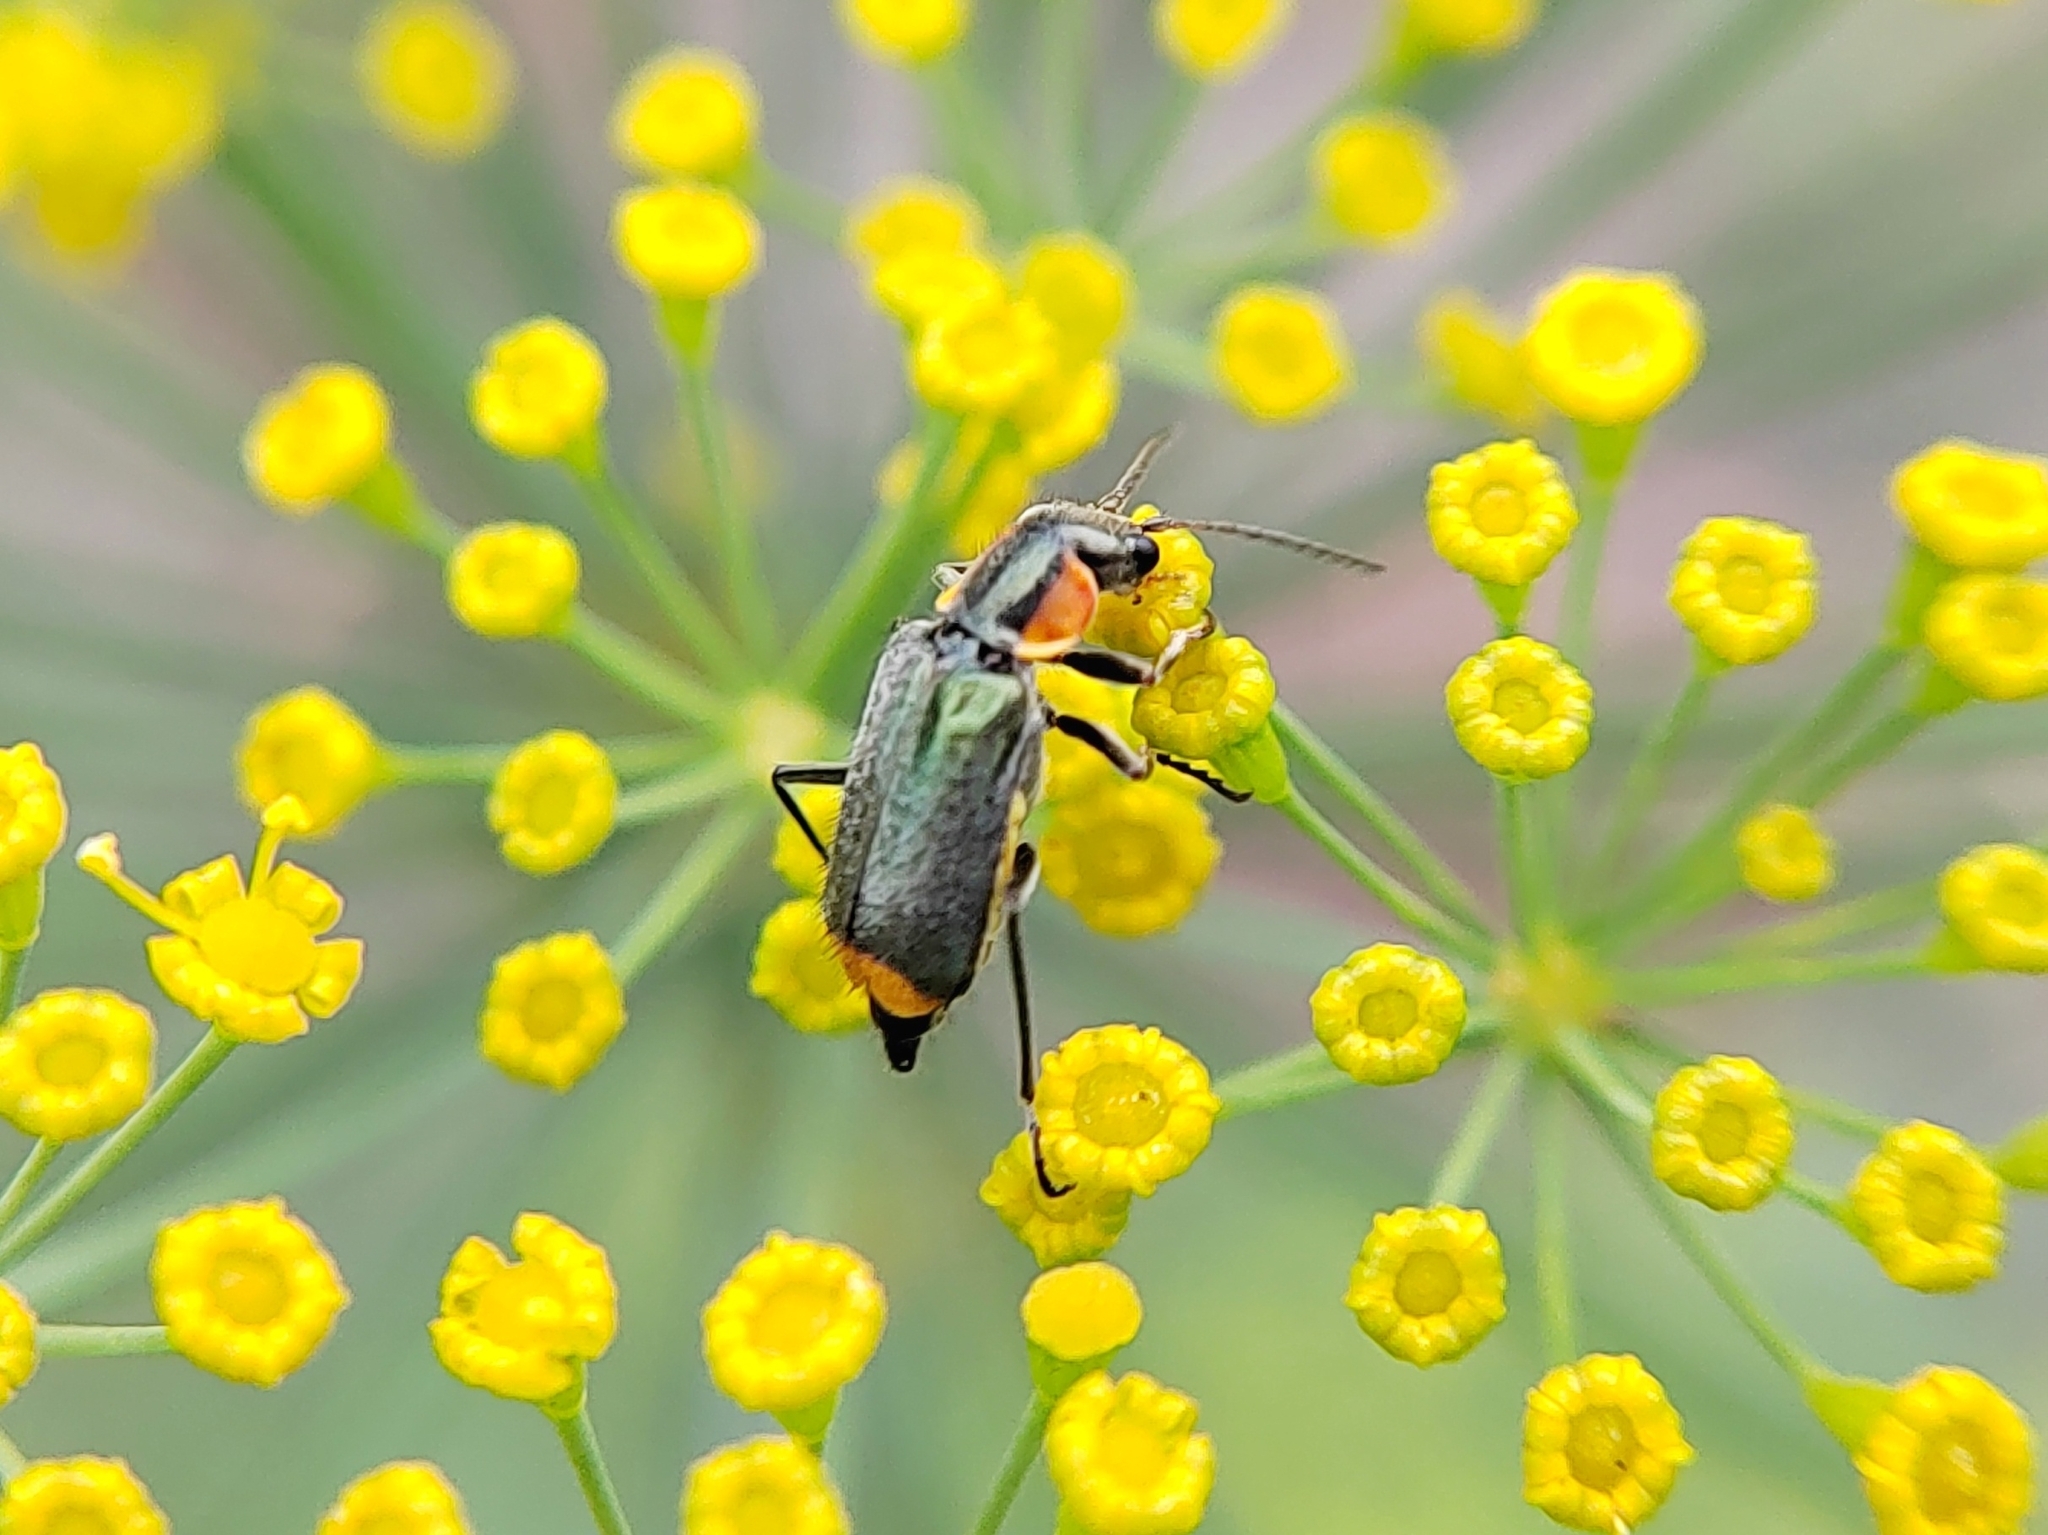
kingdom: Animalia
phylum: Arthropoda
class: Insecta
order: Coleoptera
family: Malachiidae
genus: Clanoptilus
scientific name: Clanoptilus marginellus
